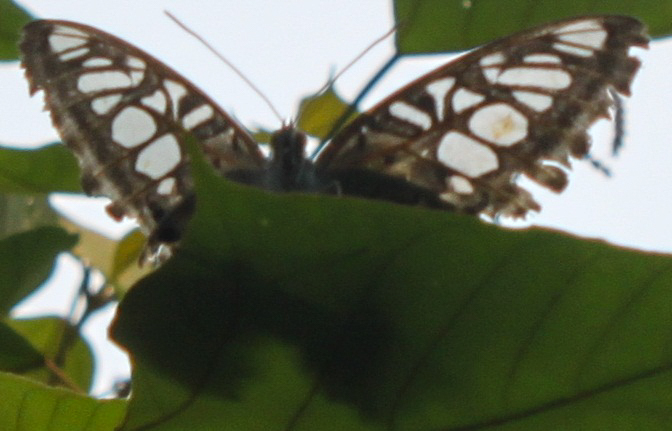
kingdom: Animalia
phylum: Arthropoda
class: Insecta
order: Lepidoptera
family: Nymphalidae
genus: Kallima
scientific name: Kallima sylvia
